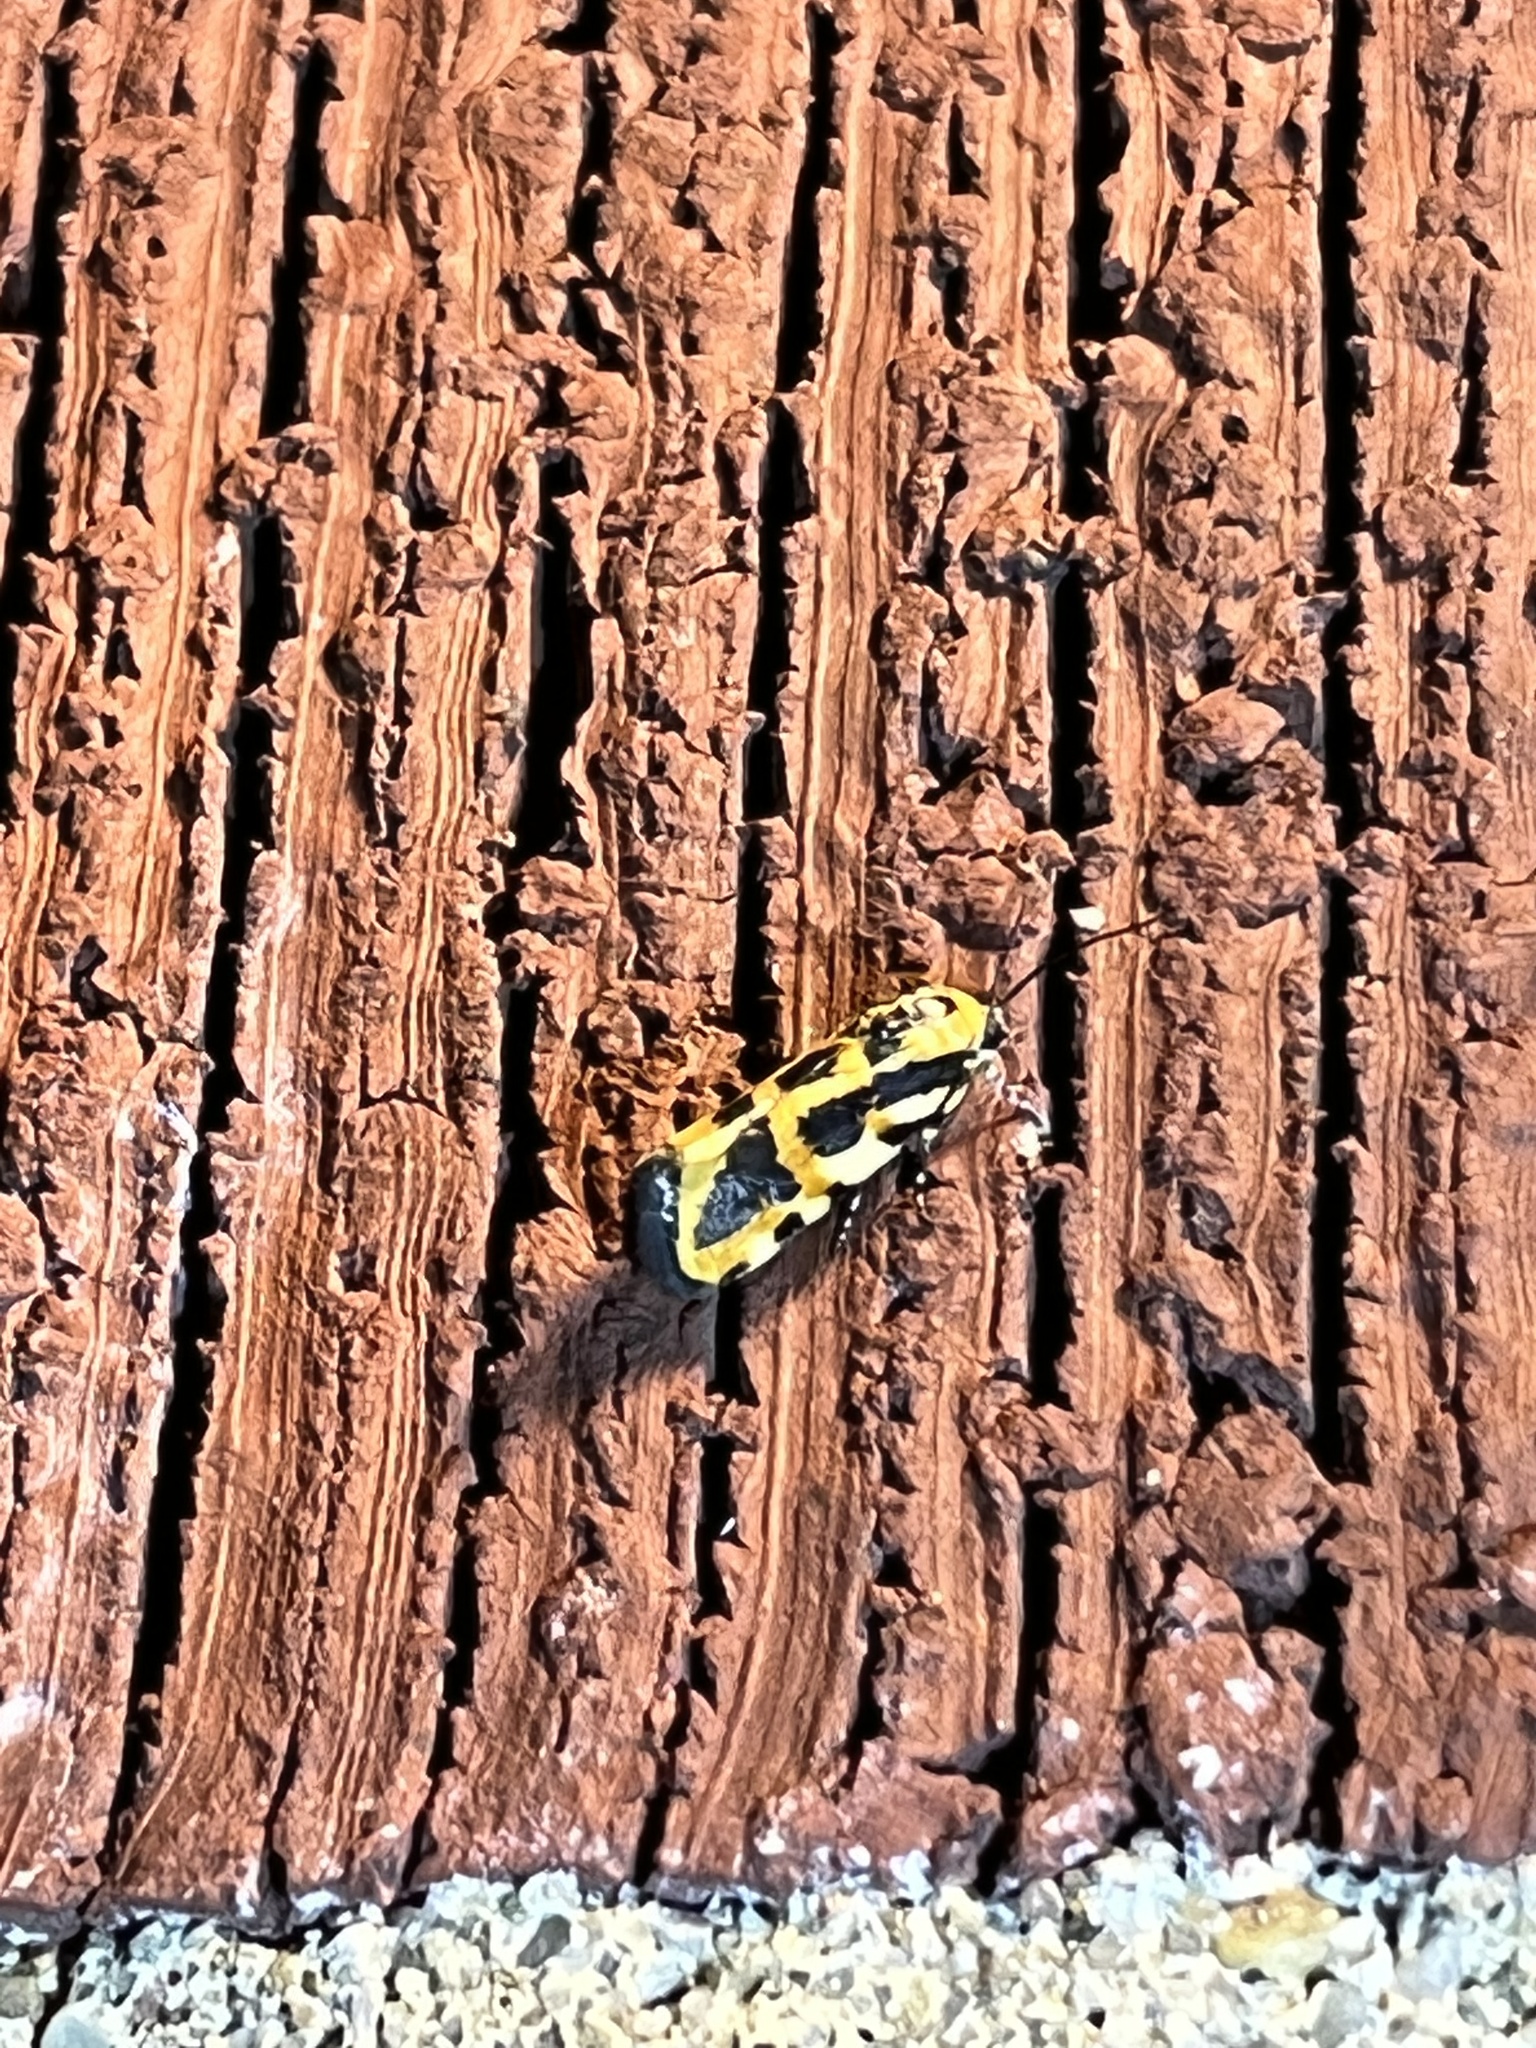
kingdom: Animalia
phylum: Arthropoda
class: Insecta
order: Lepidoptera
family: Noctuidae
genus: Acontia
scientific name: Acontia leo
